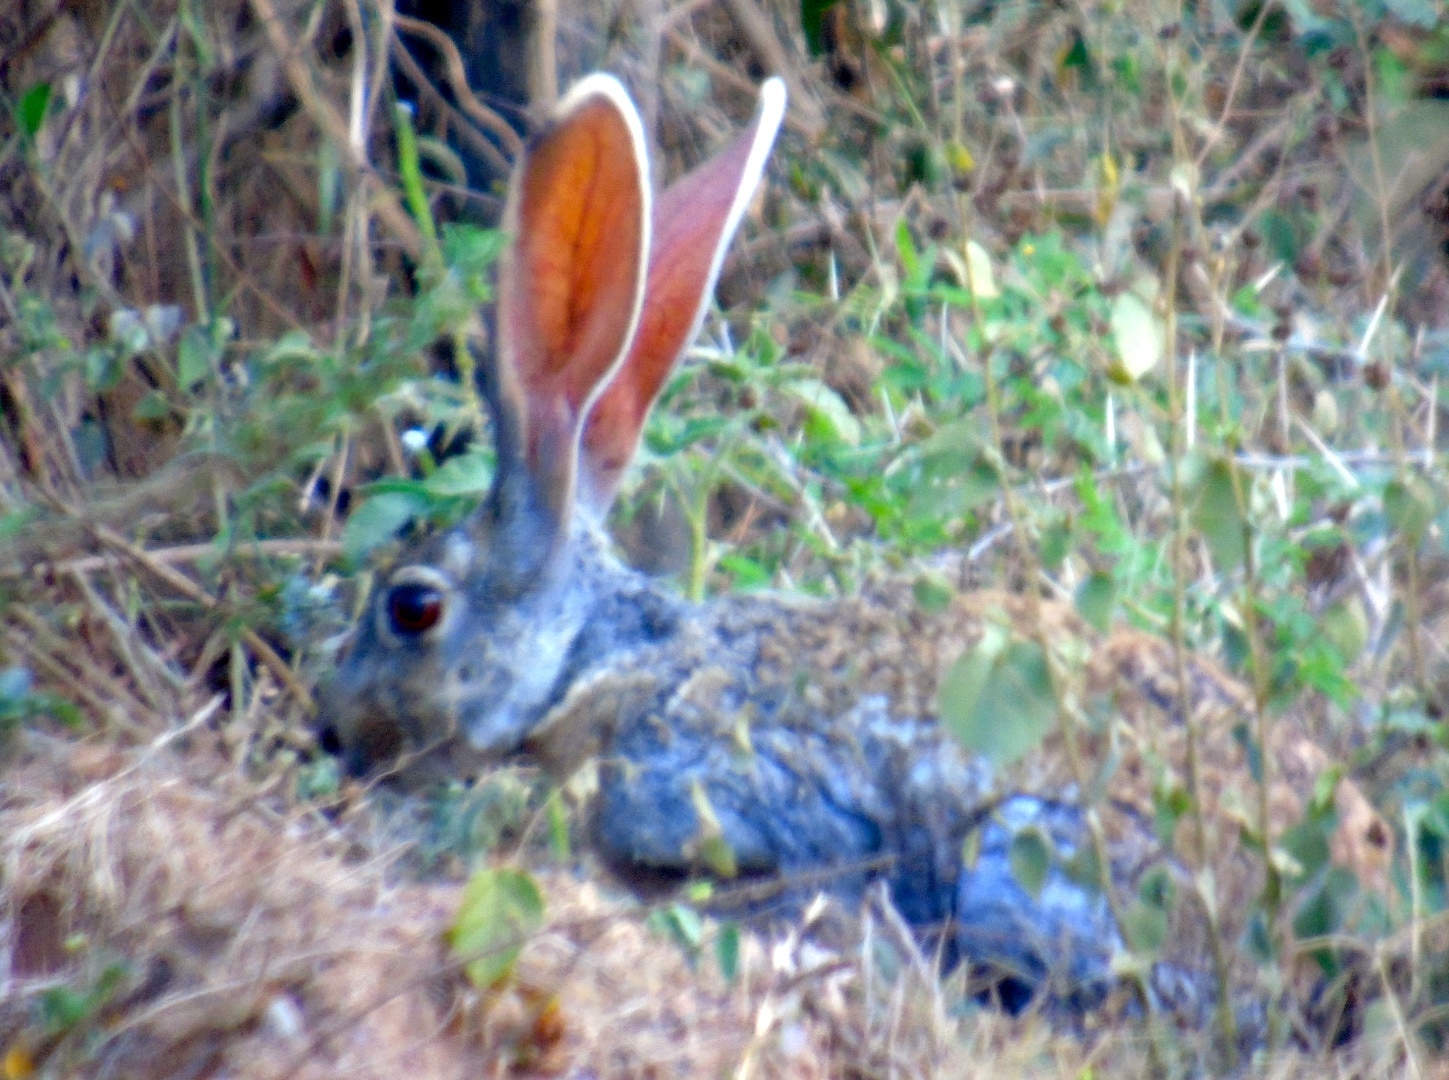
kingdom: Animalia
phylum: Chordata
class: Mammalia
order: Lagomorpha
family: Leporidae
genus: Lepus
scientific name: Lepus alleni
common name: Antelope jackrabbit
